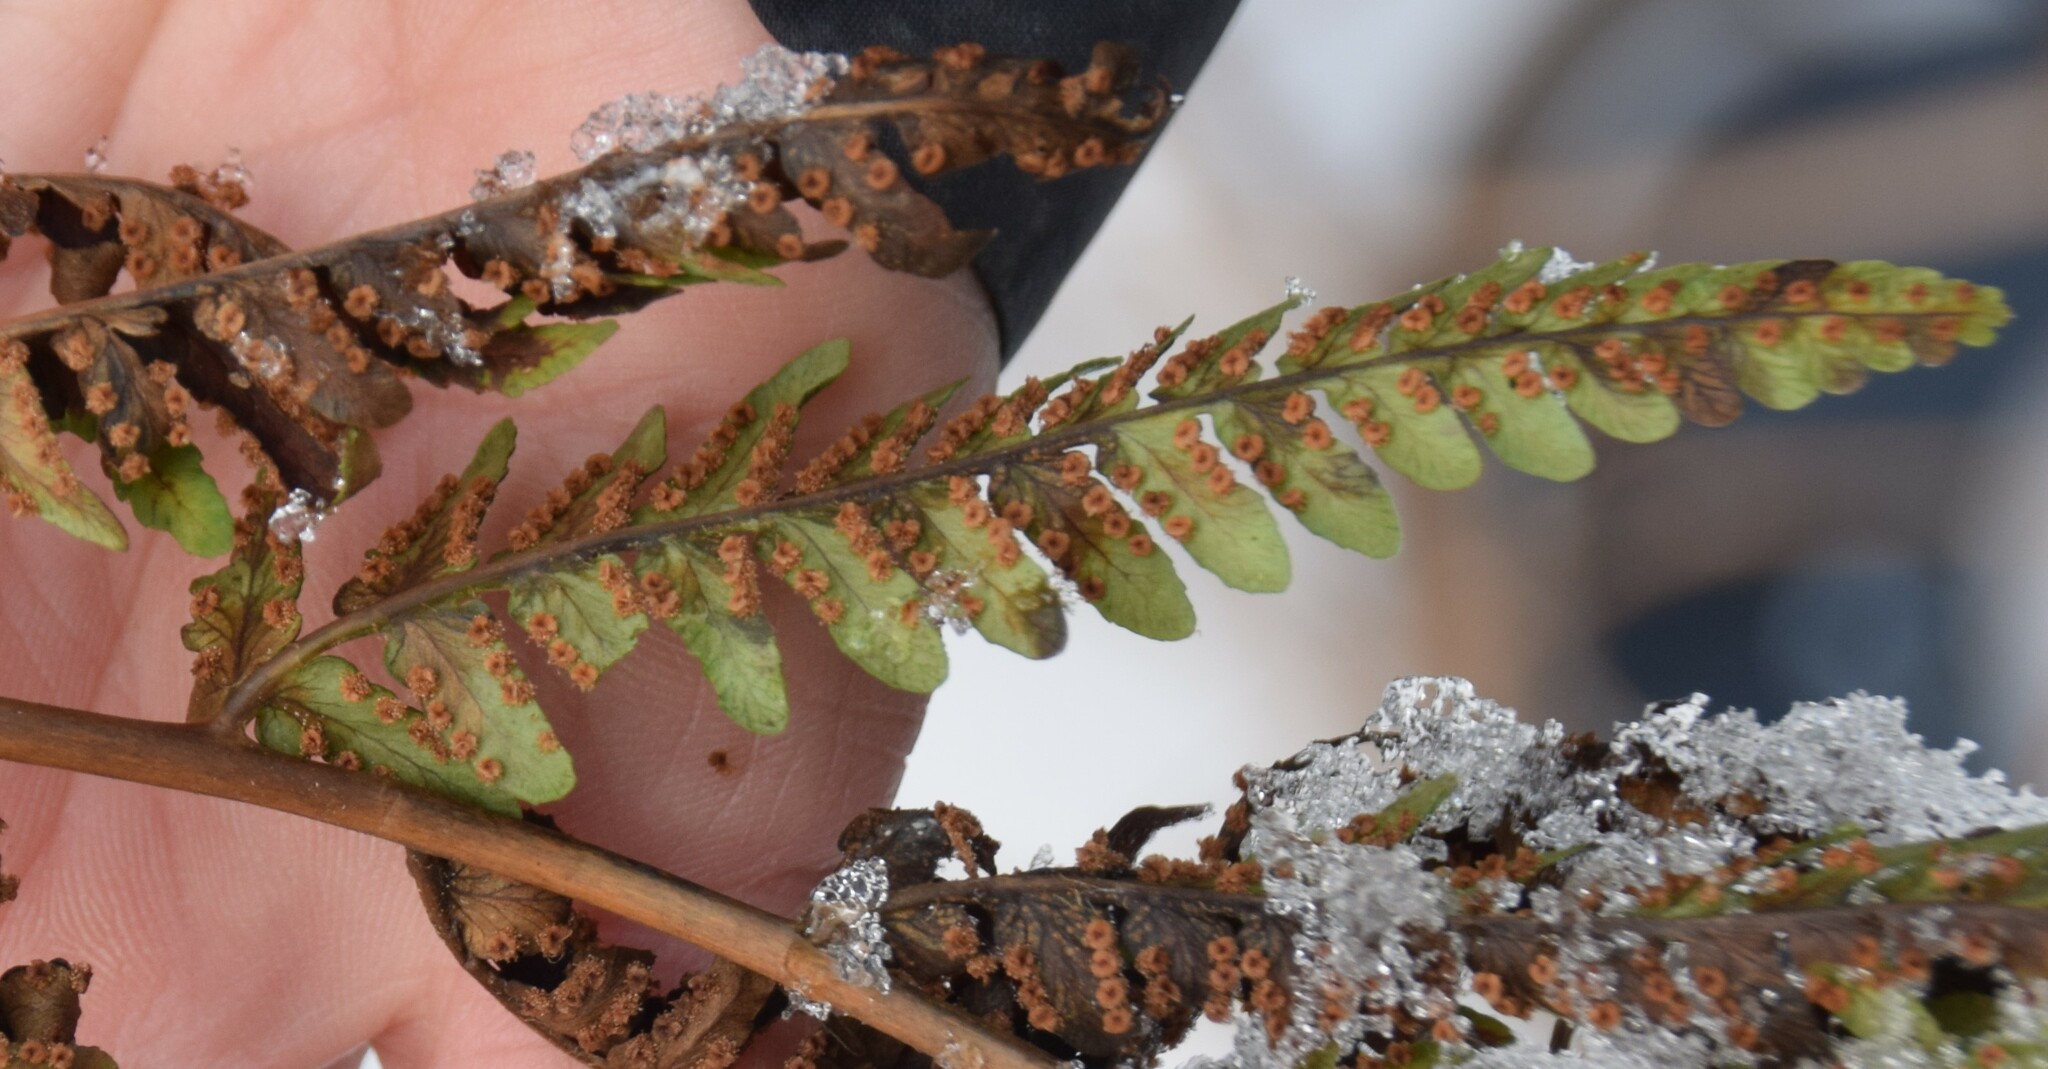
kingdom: Plantae
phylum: Tracheophyta
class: Polypodiopsida
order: Polypodiales
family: Dryopteridaceae
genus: Dryopteris
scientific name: Dryopteris marginalis
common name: Marginal wood fern
